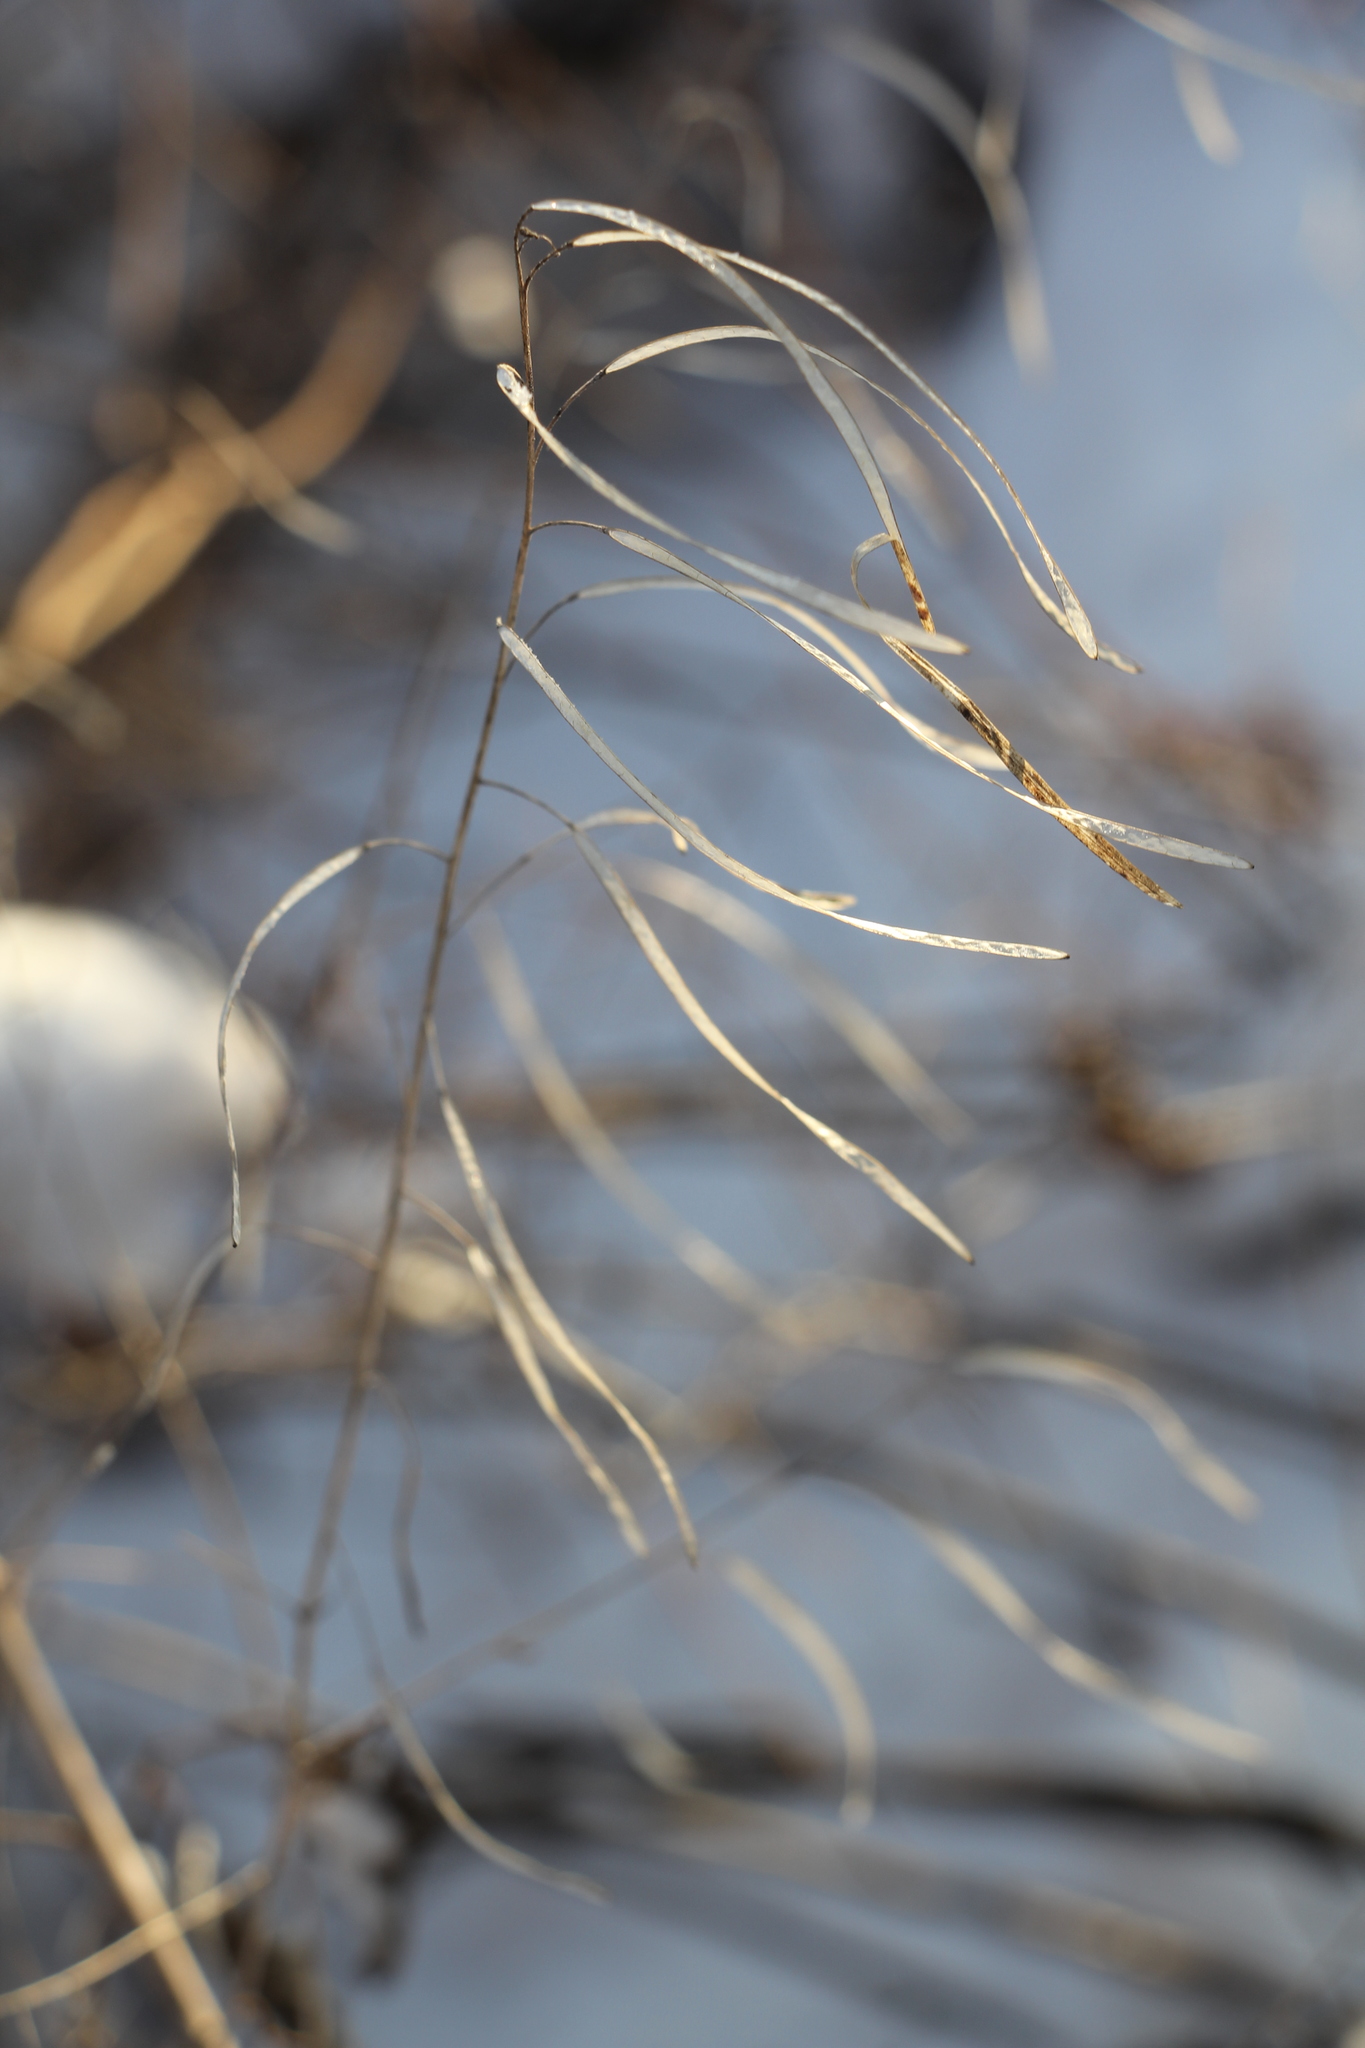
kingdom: Plantae
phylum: Tracheophyta
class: Magnoliopsida
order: Brassicales
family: Brassicaceae
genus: Catolobus
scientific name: Catolobus pendulus
